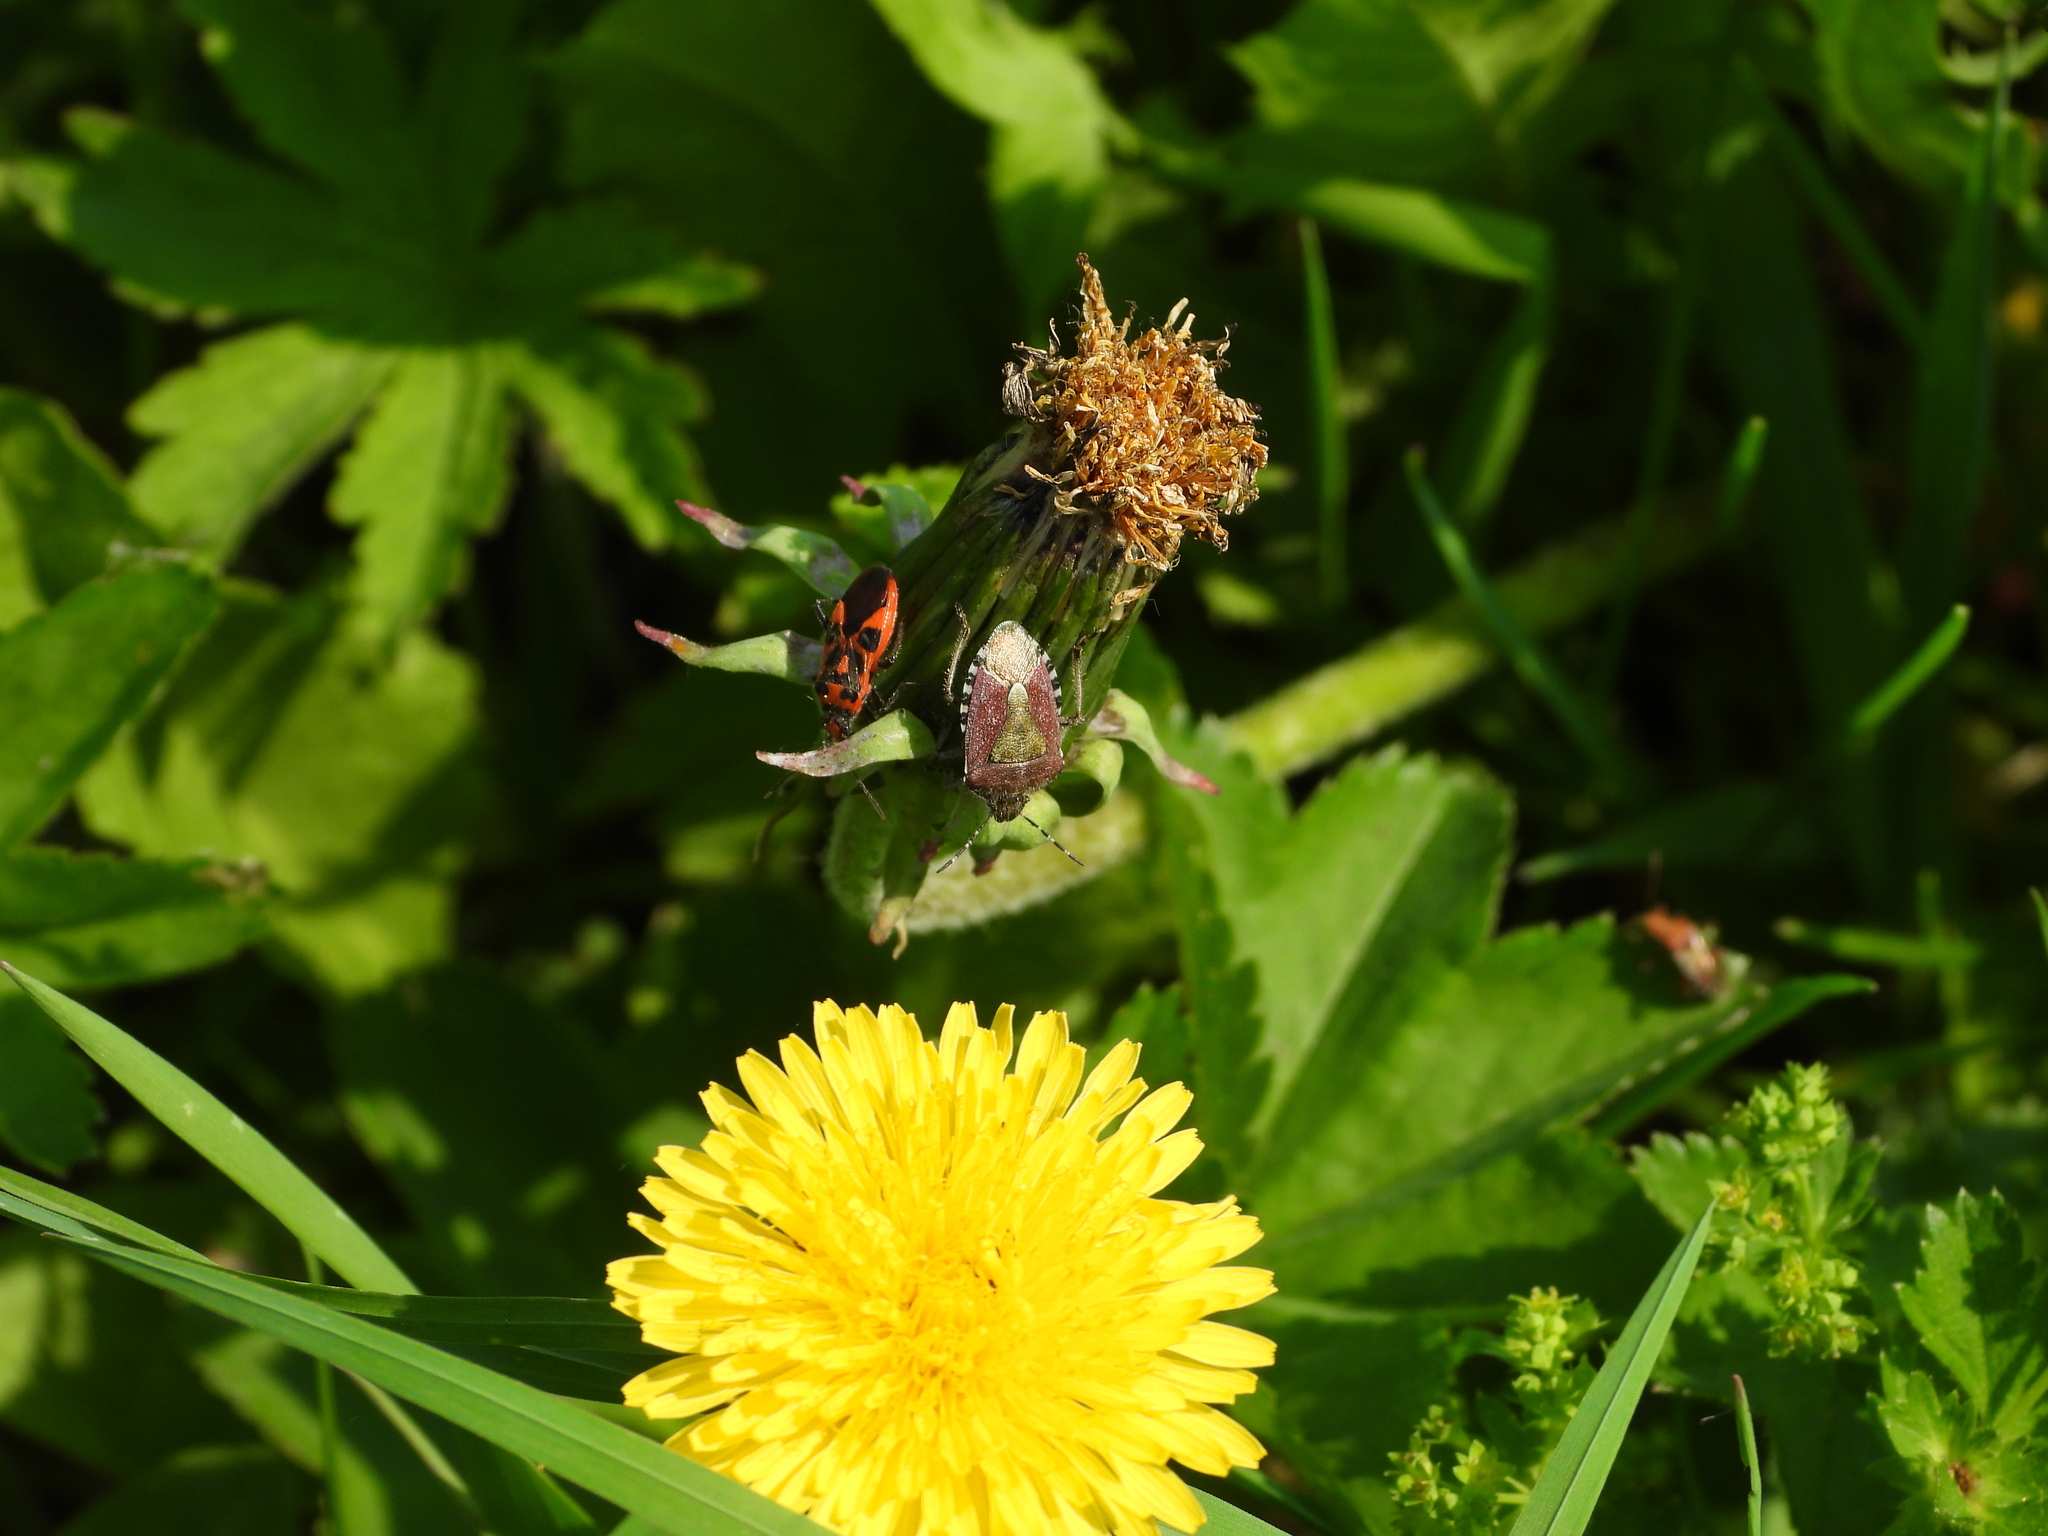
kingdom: Animalia
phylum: Arthropoda
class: Insecta
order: Hemiptera
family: Rhopalidae
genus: Corizus
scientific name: Corizus hyoscyami
